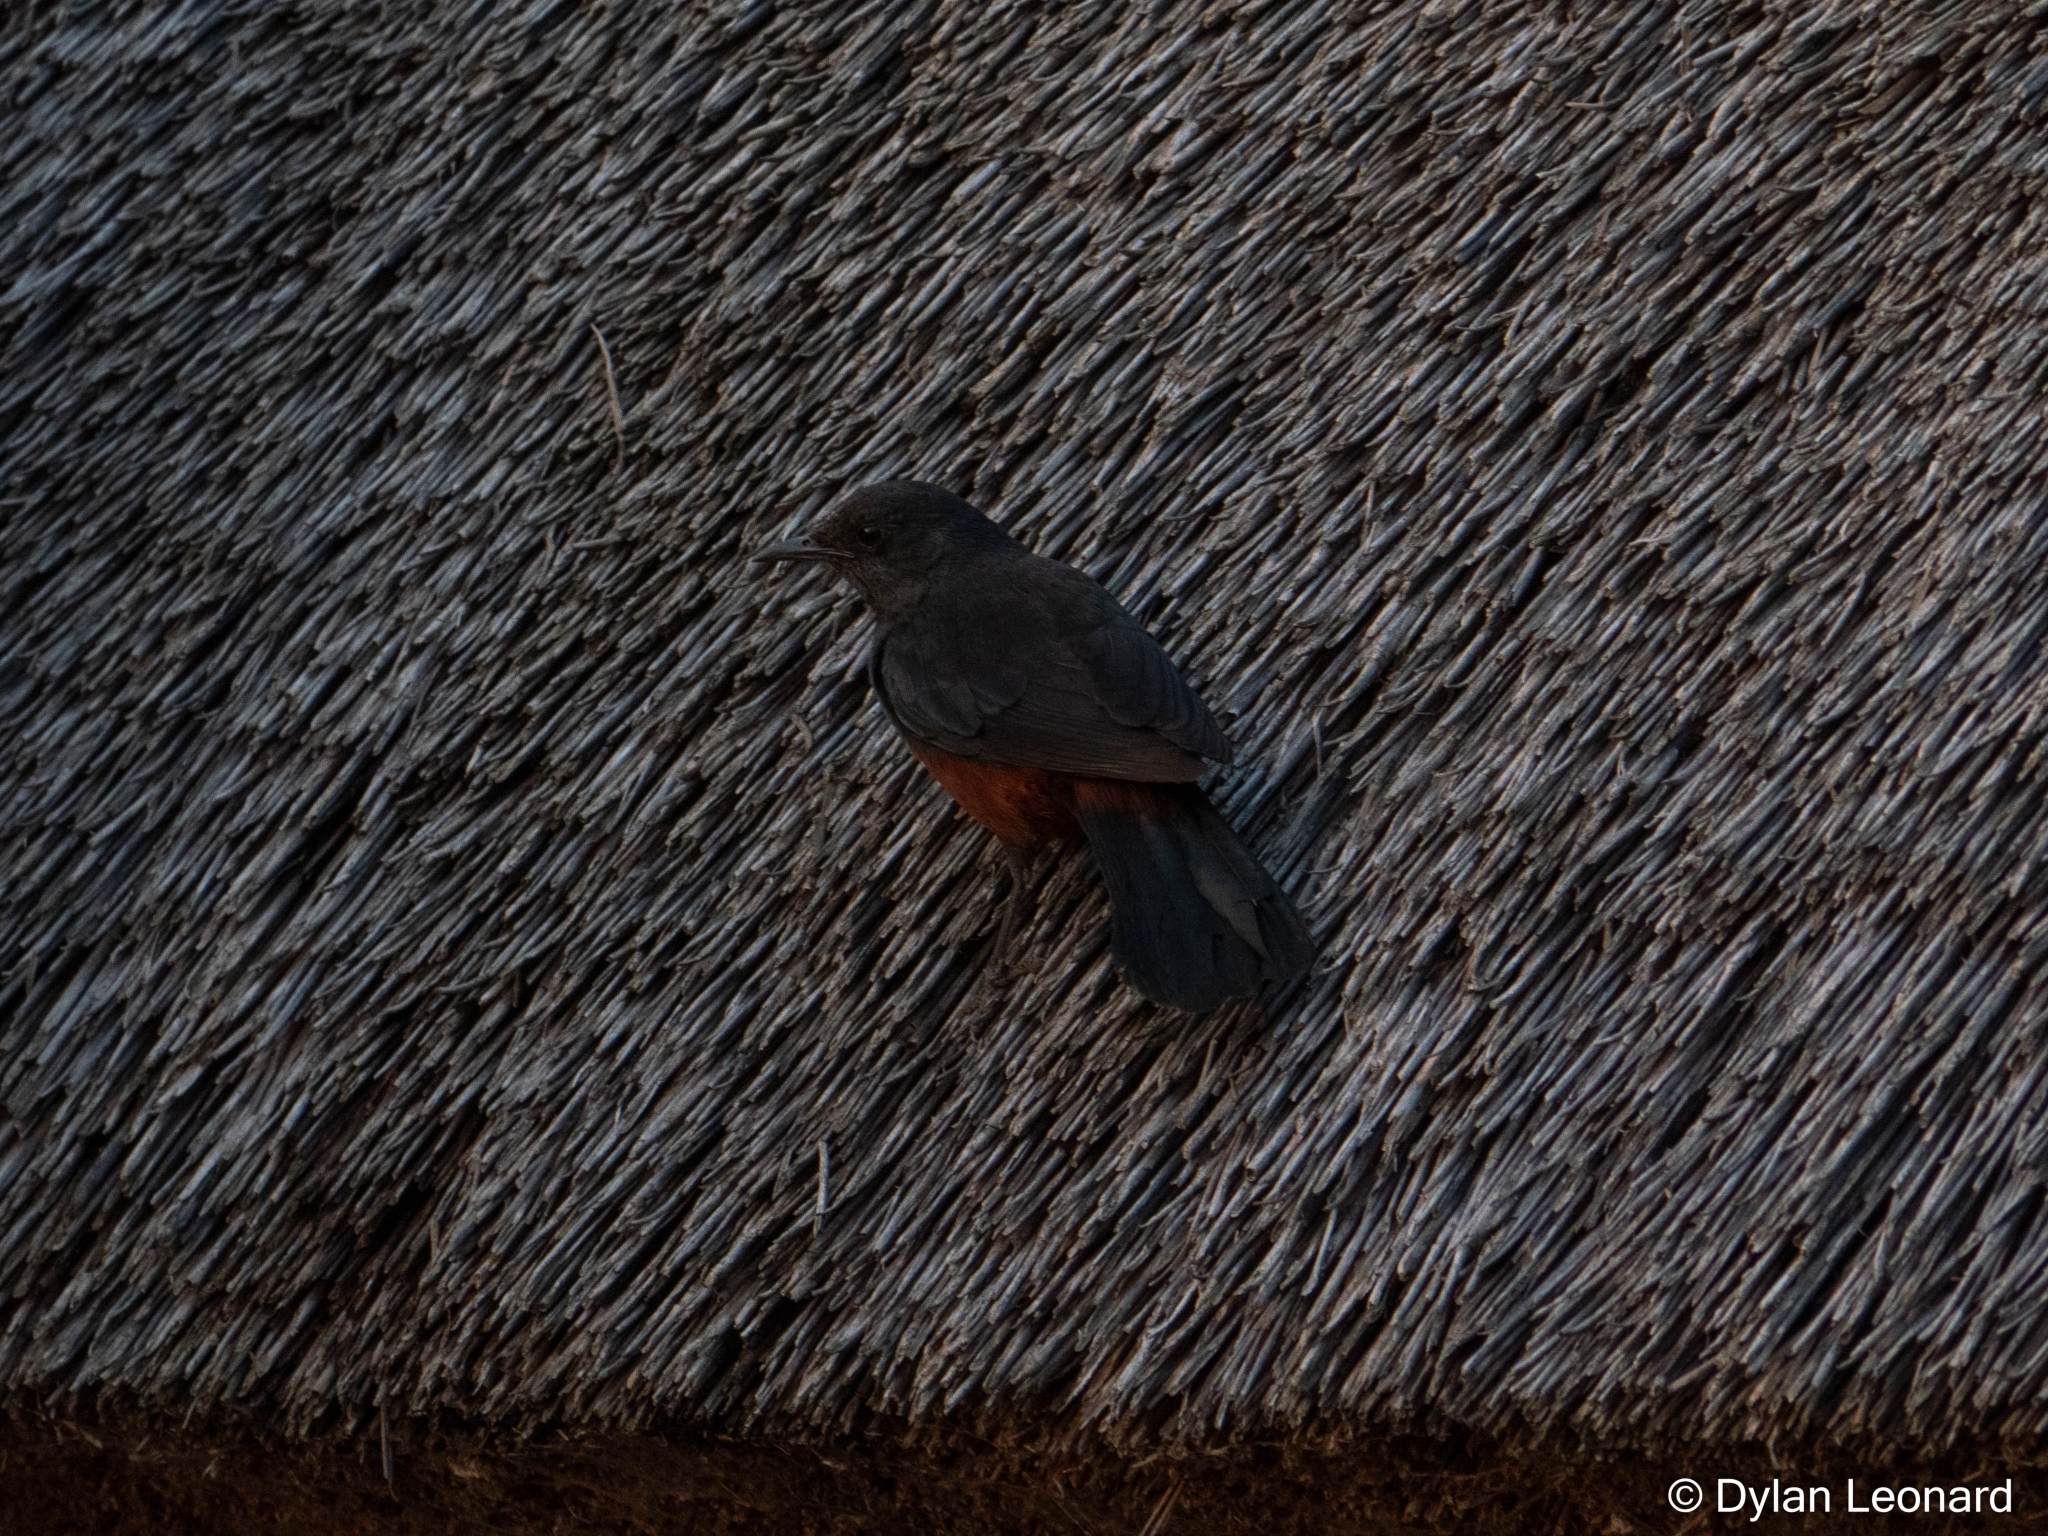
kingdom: Animalia
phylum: Chordata
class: Aves
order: Passeriformes
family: Muscicapidae
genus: Thamnolaea
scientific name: Thamnolaea cinnamomeiventris
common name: Mocking cliff chat
